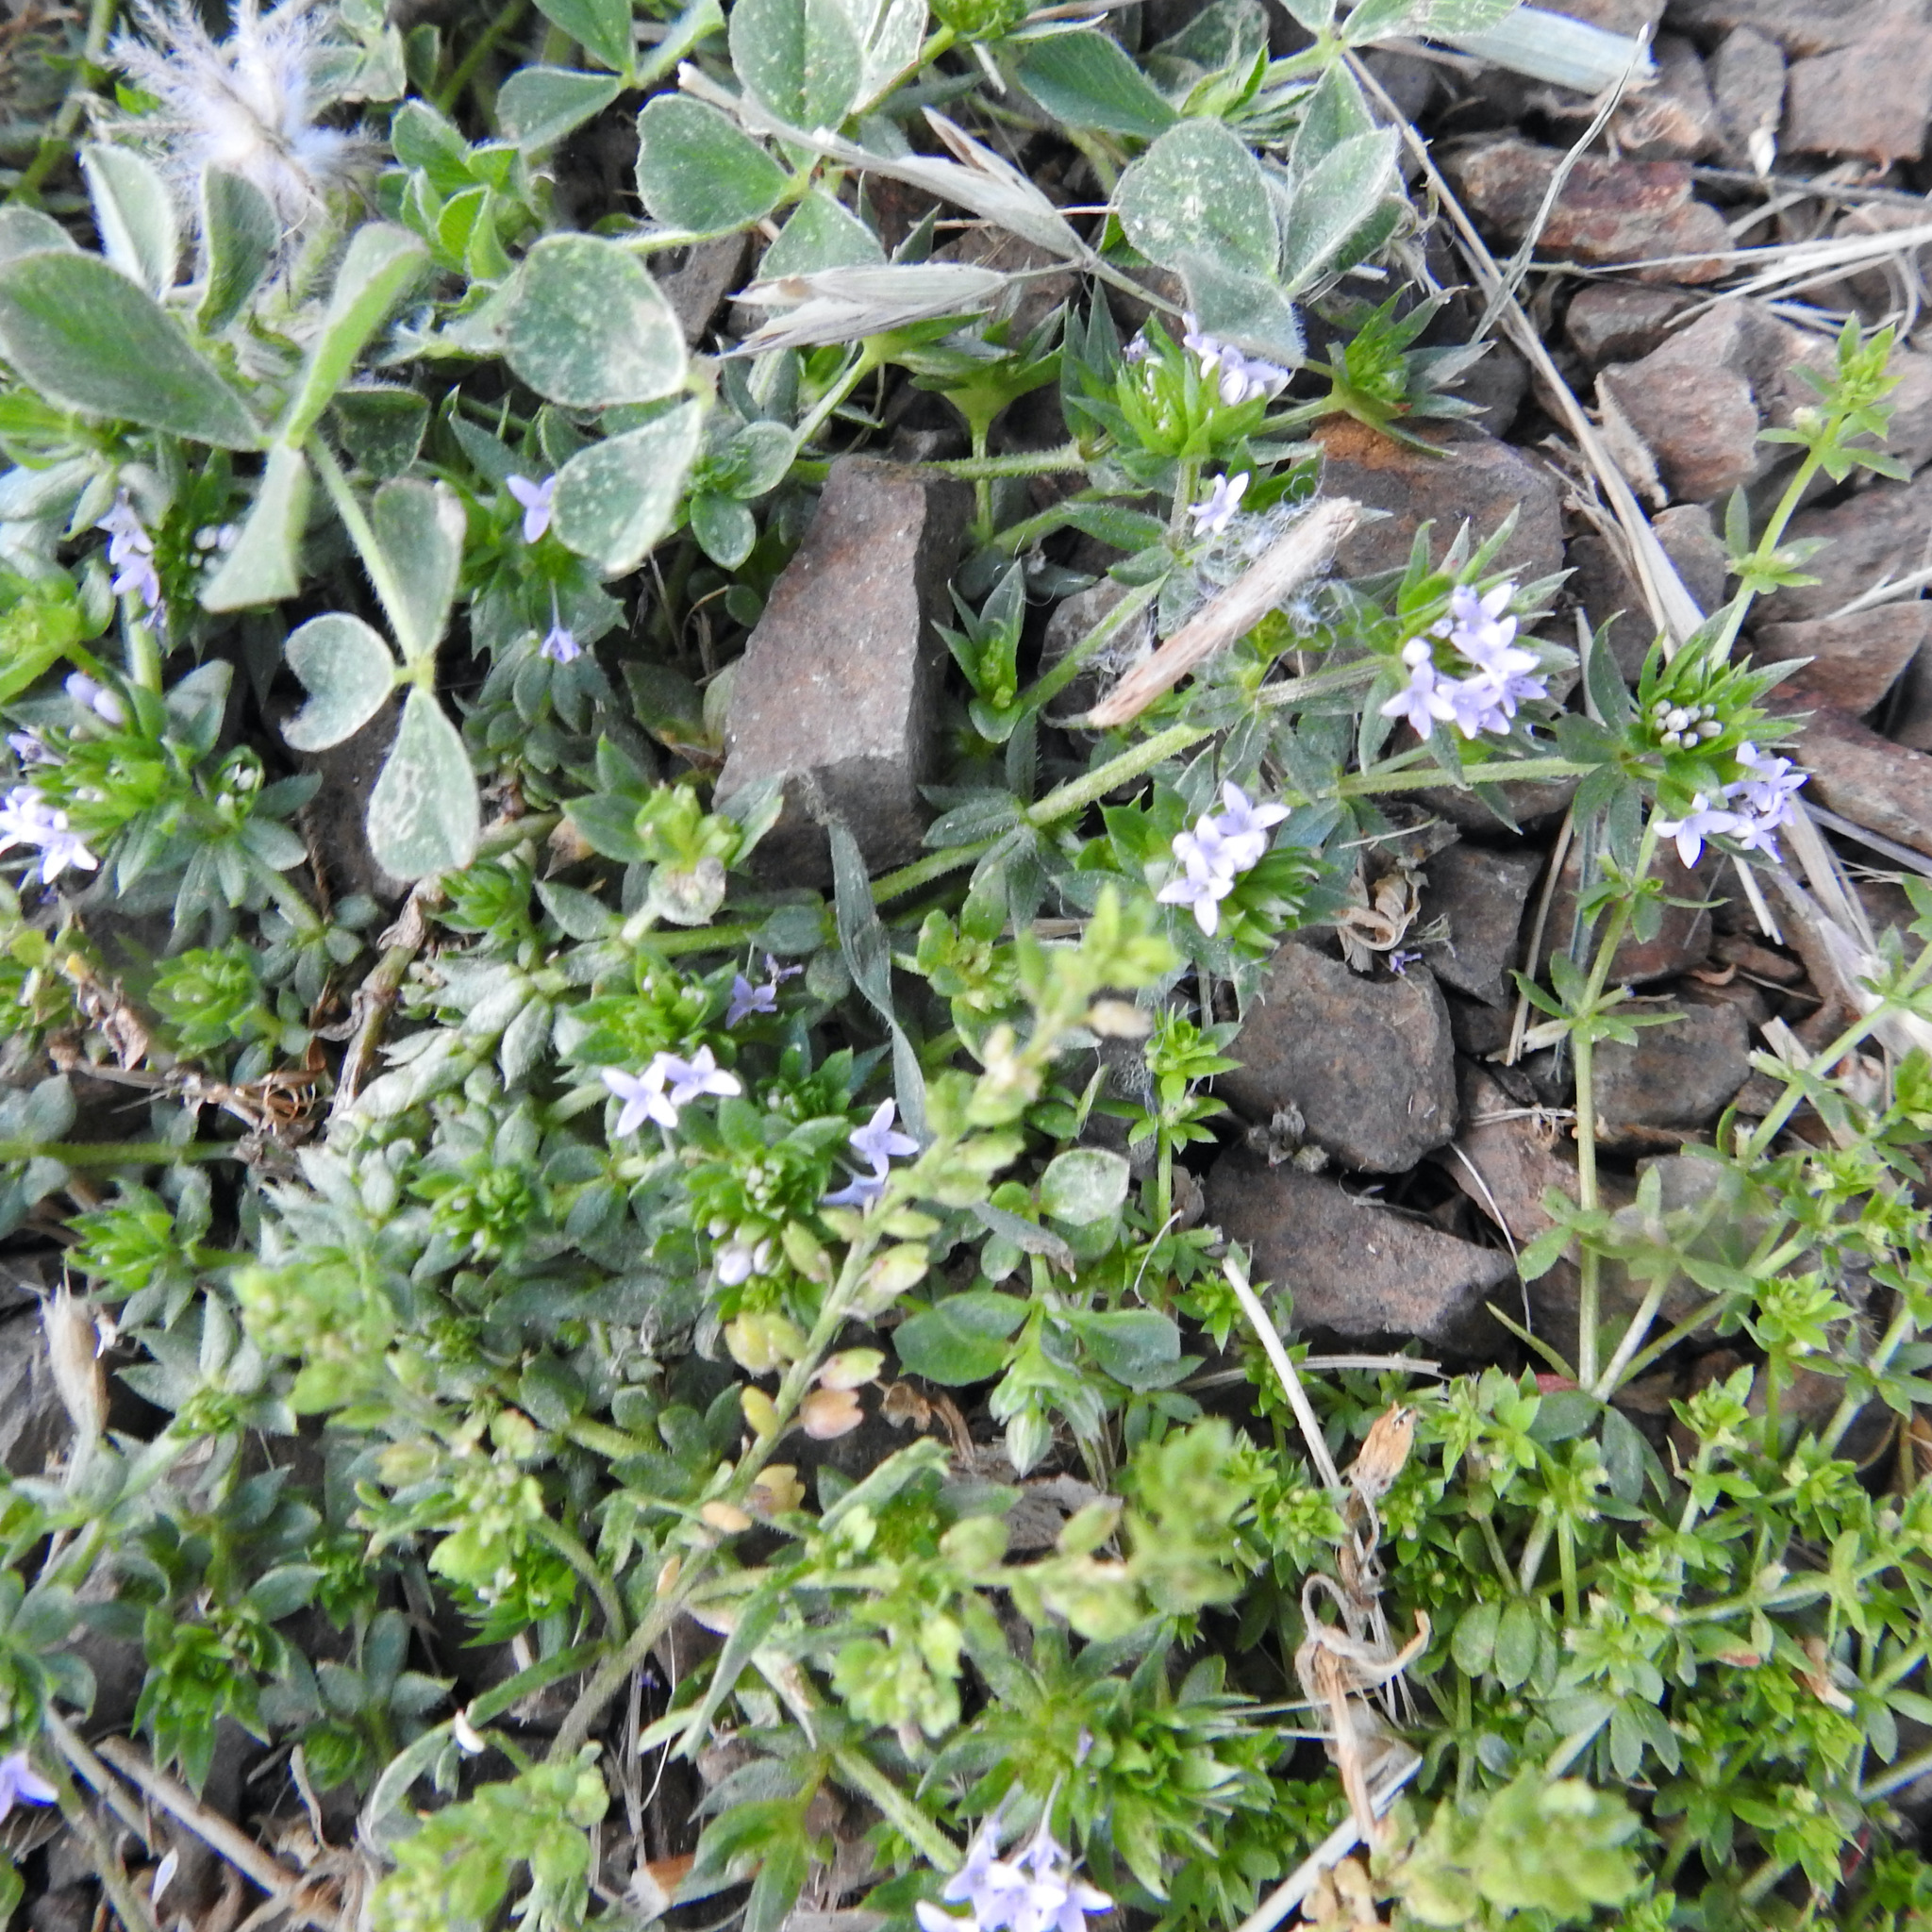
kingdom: Plantae
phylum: Tracheophyta
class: Magnoliopsida
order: Gentianales
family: Rubiaceae
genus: Sherardia
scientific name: Sherardia arvensis
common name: Field madder
